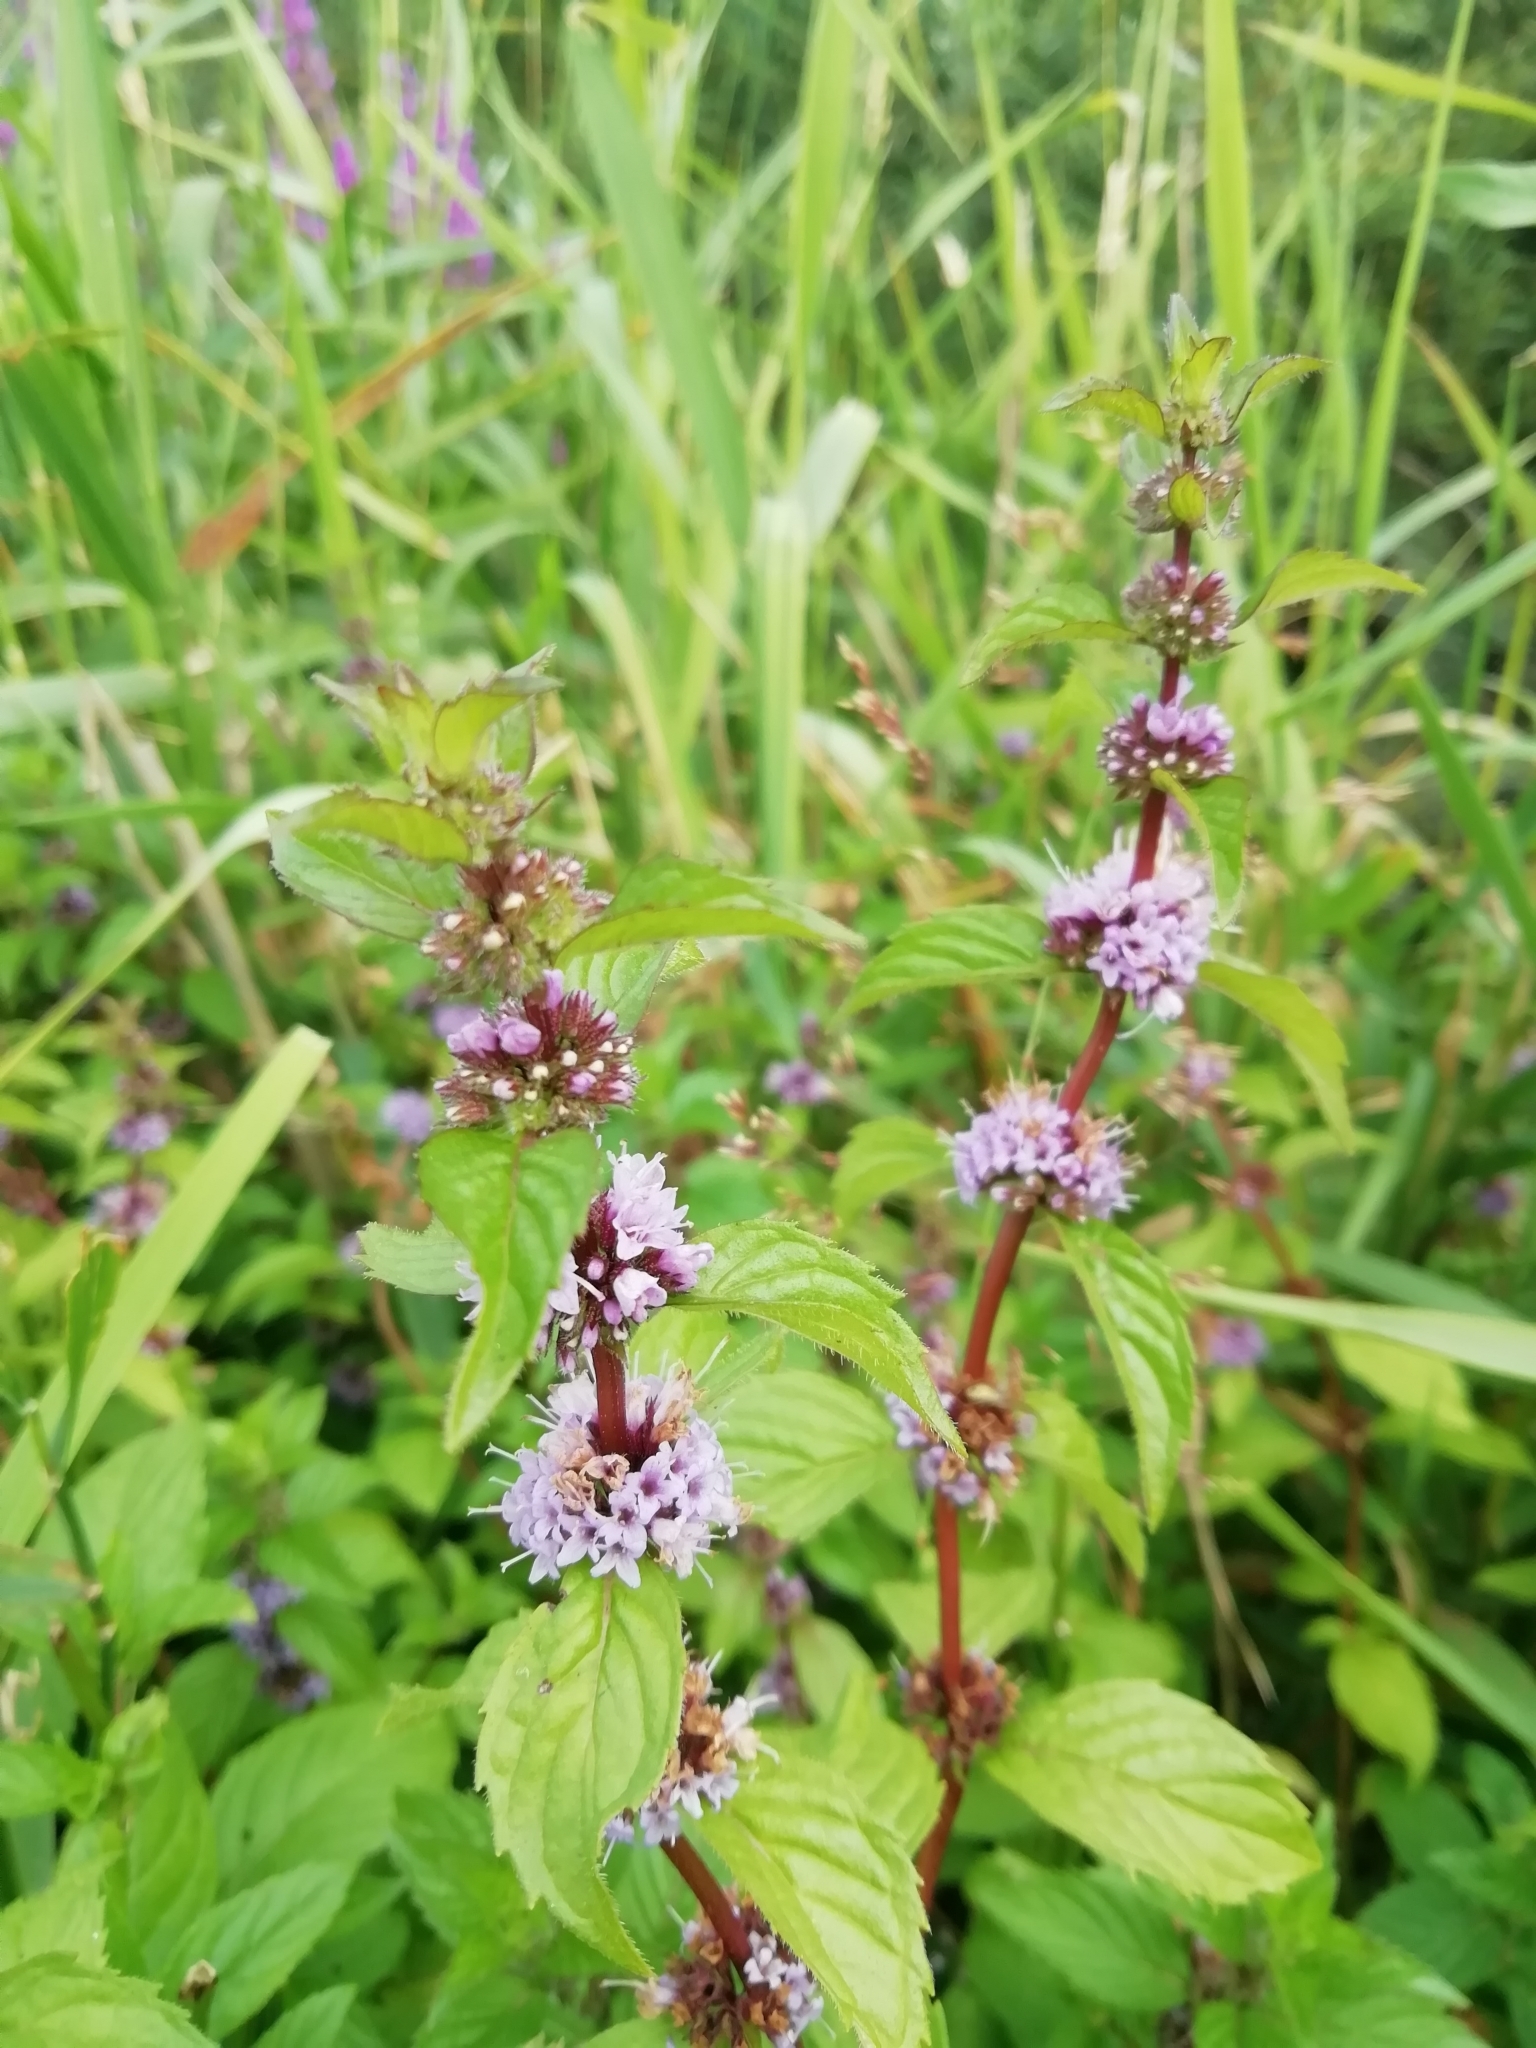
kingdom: Plantae
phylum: Tracheophyta
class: Magnoliopsida
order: Lamiales
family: Lamiaceae
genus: Mentha
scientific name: Mentha arvensis
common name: Corn mint
